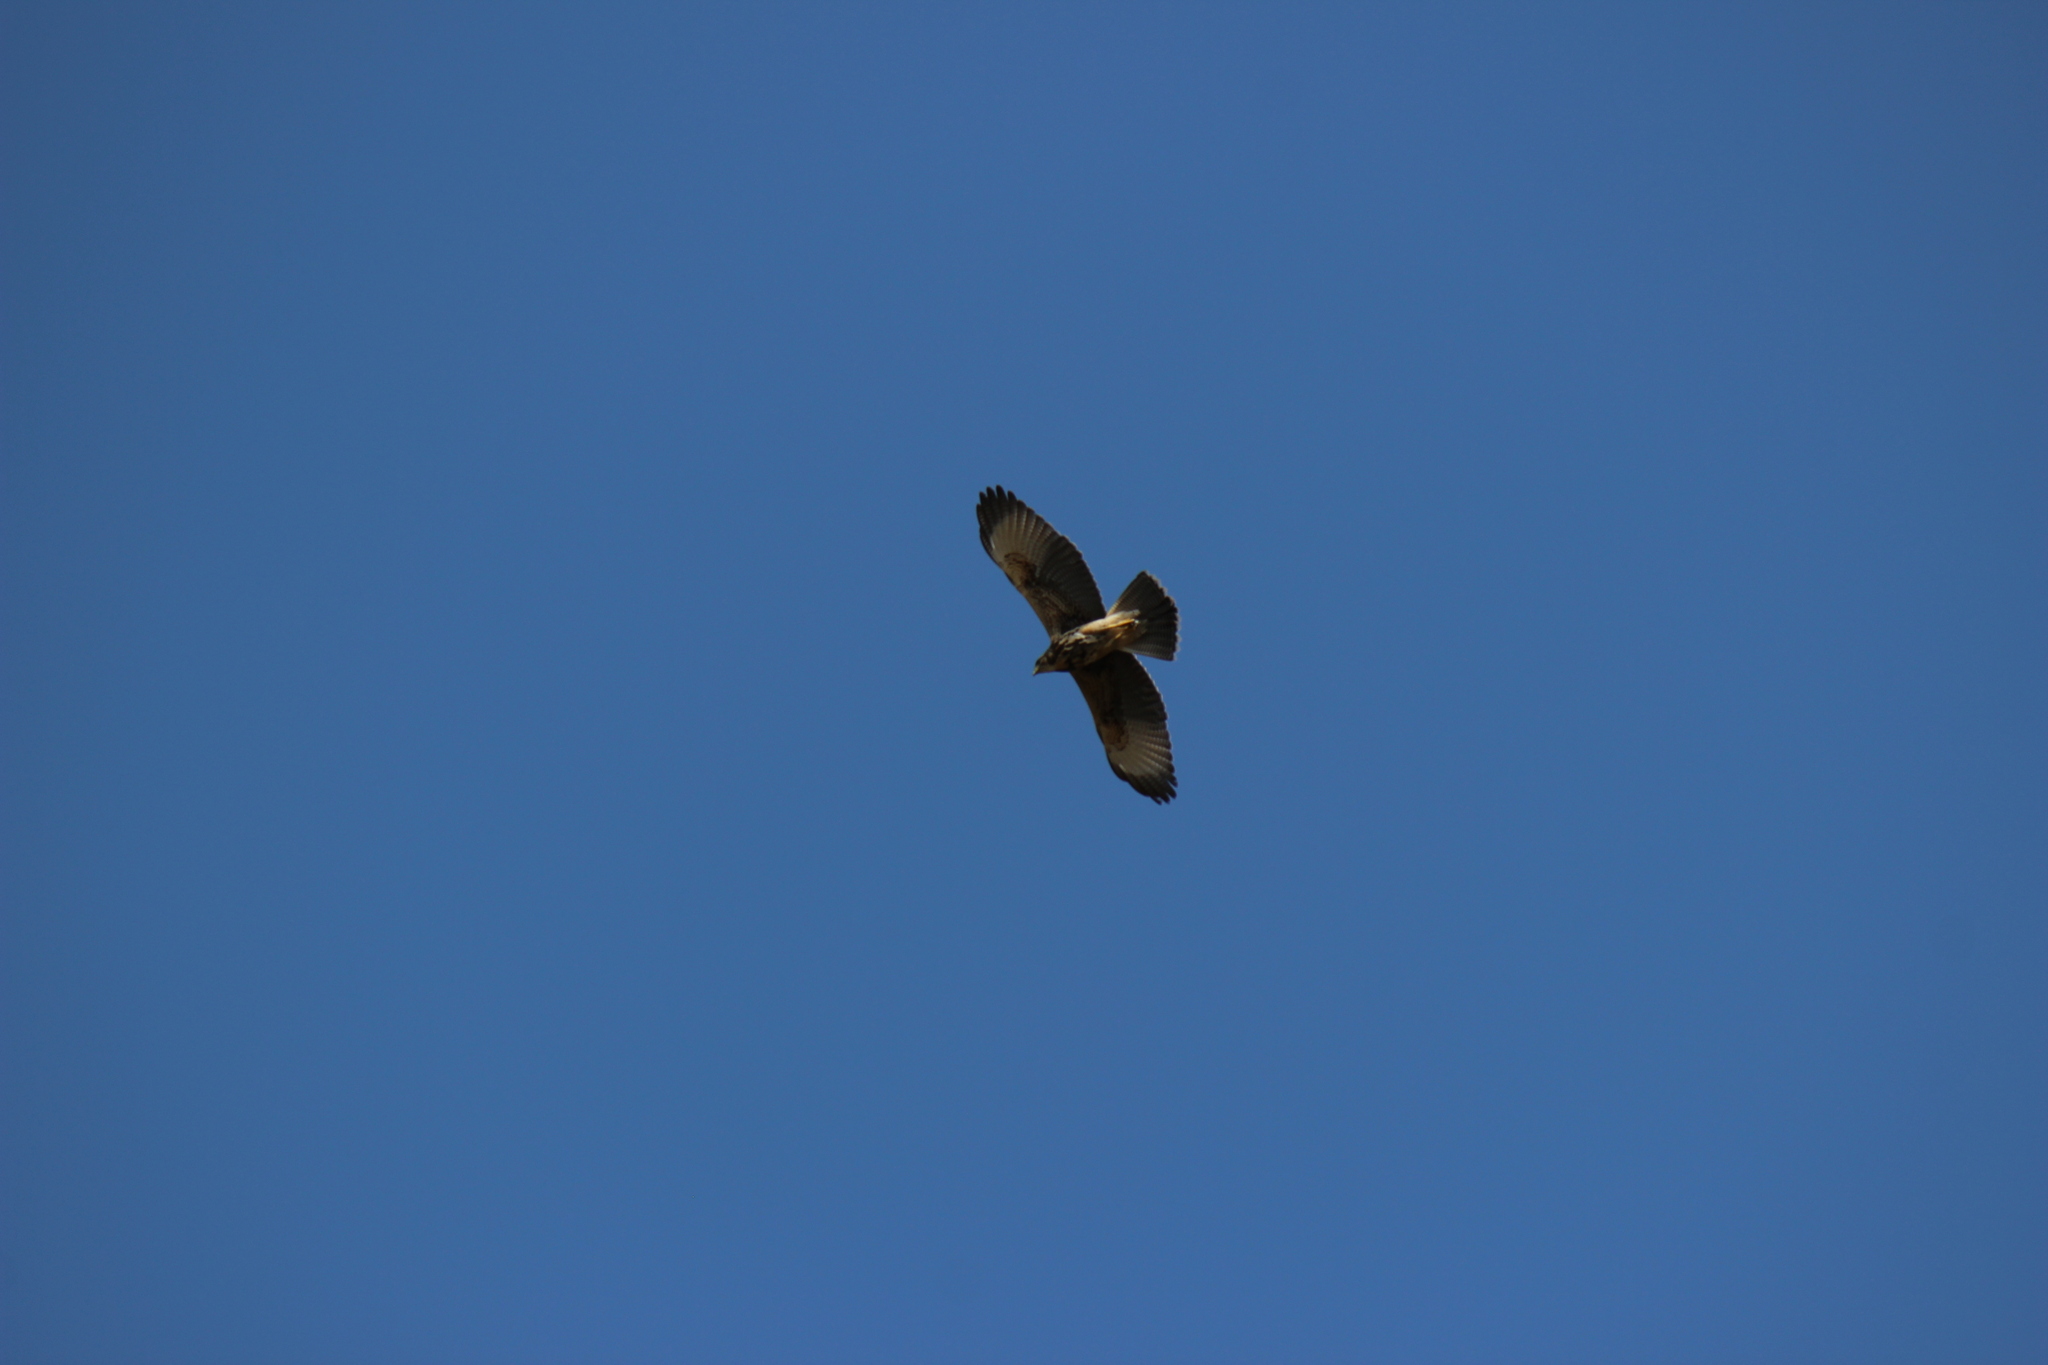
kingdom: Animalia
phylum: Chordata
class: Aves
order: Accipitriformes
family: Accipitridae
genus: Parabuteo
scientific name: Parabuteo unicinctus
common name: Harris's hawk
